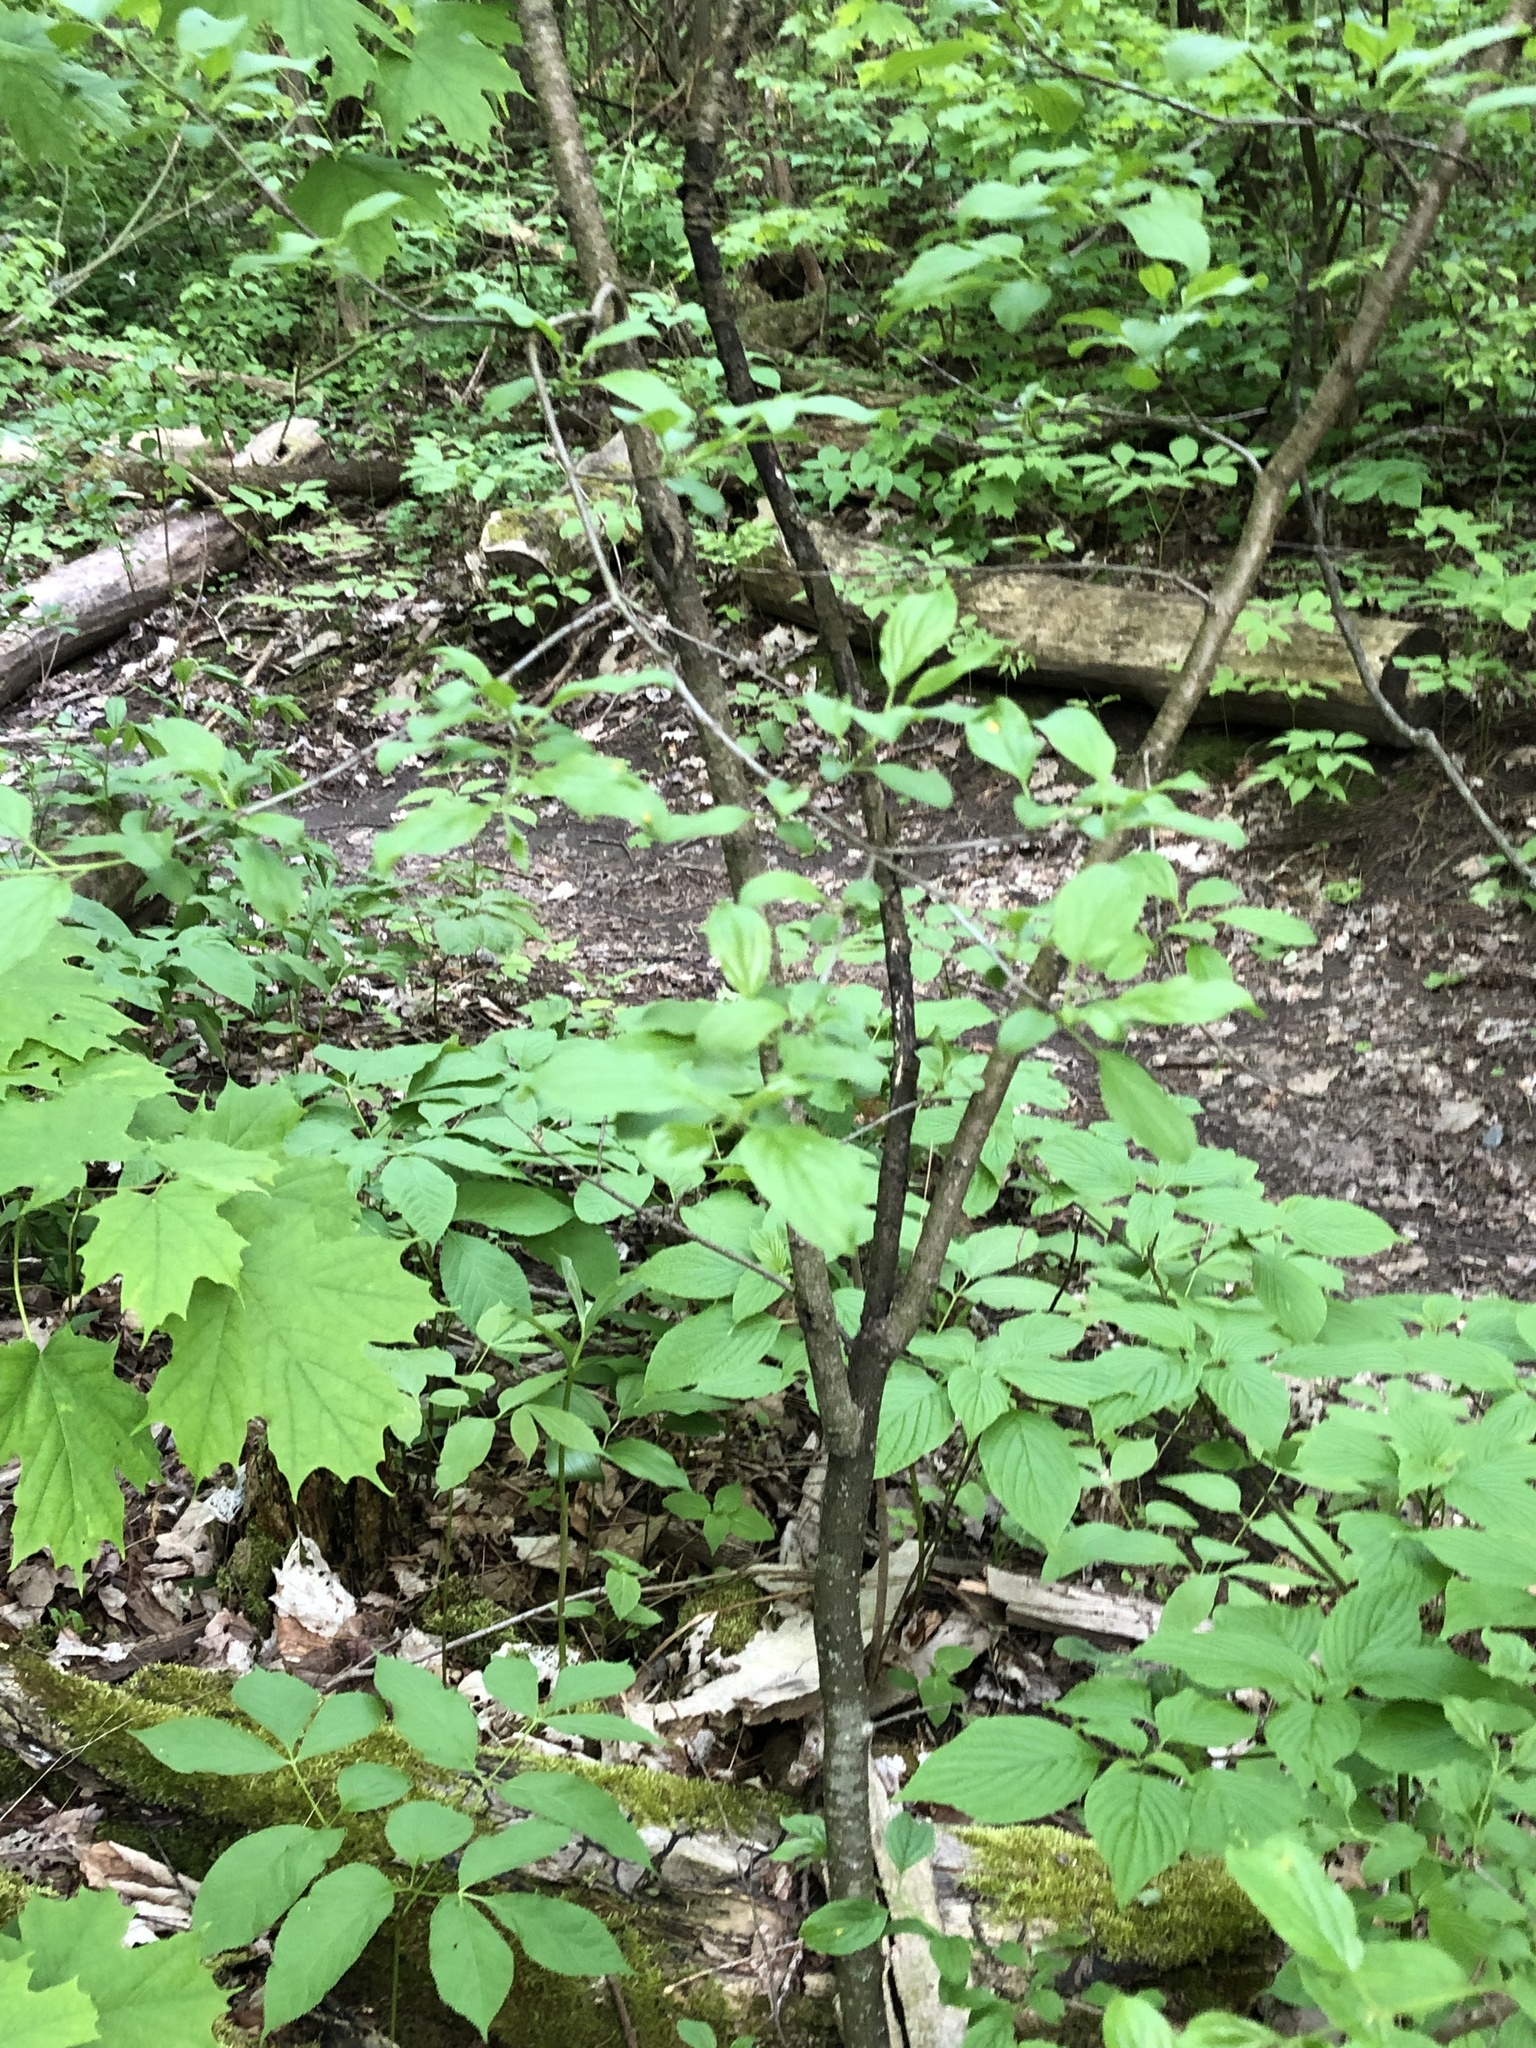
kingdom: Plantae
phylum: Tracheophyta
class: Magnoliopsida
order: Rosales
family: Rhamnaceae
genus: Rhamnus
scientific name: Rhamnus cathartica
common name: Common buckthorn
